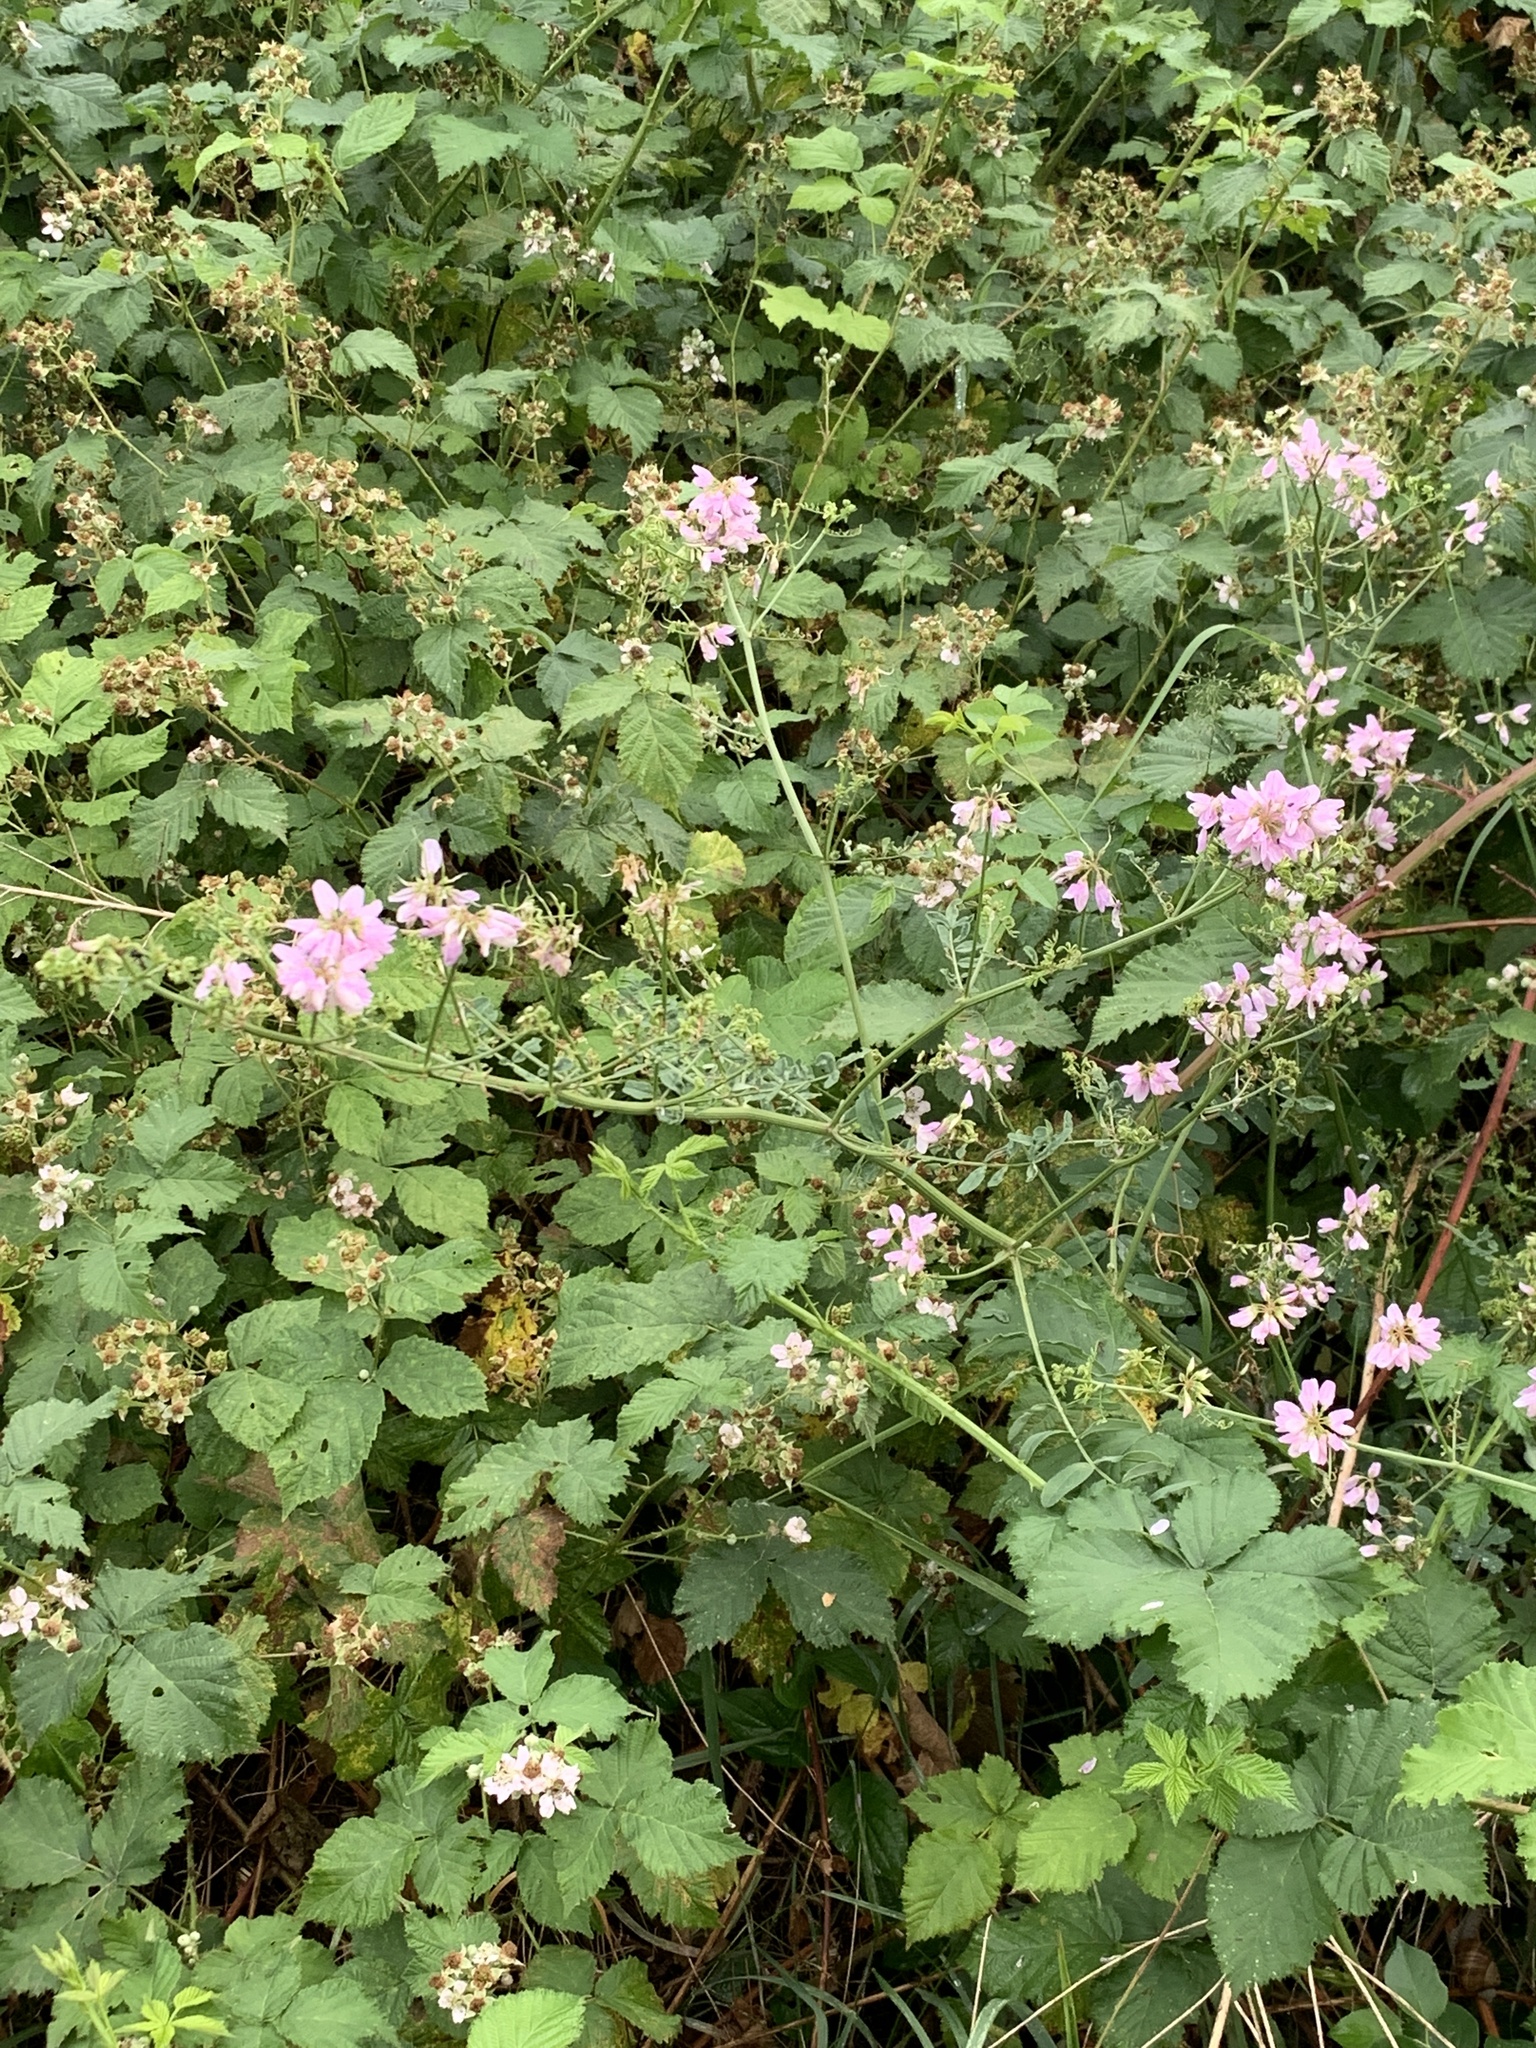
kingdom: Plantae
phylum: Tracheophyta
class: Magnoliopsida
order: Fabales
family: Fabaceae
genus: Coronilla
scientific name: Coronilla varia
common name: Crownvetch
